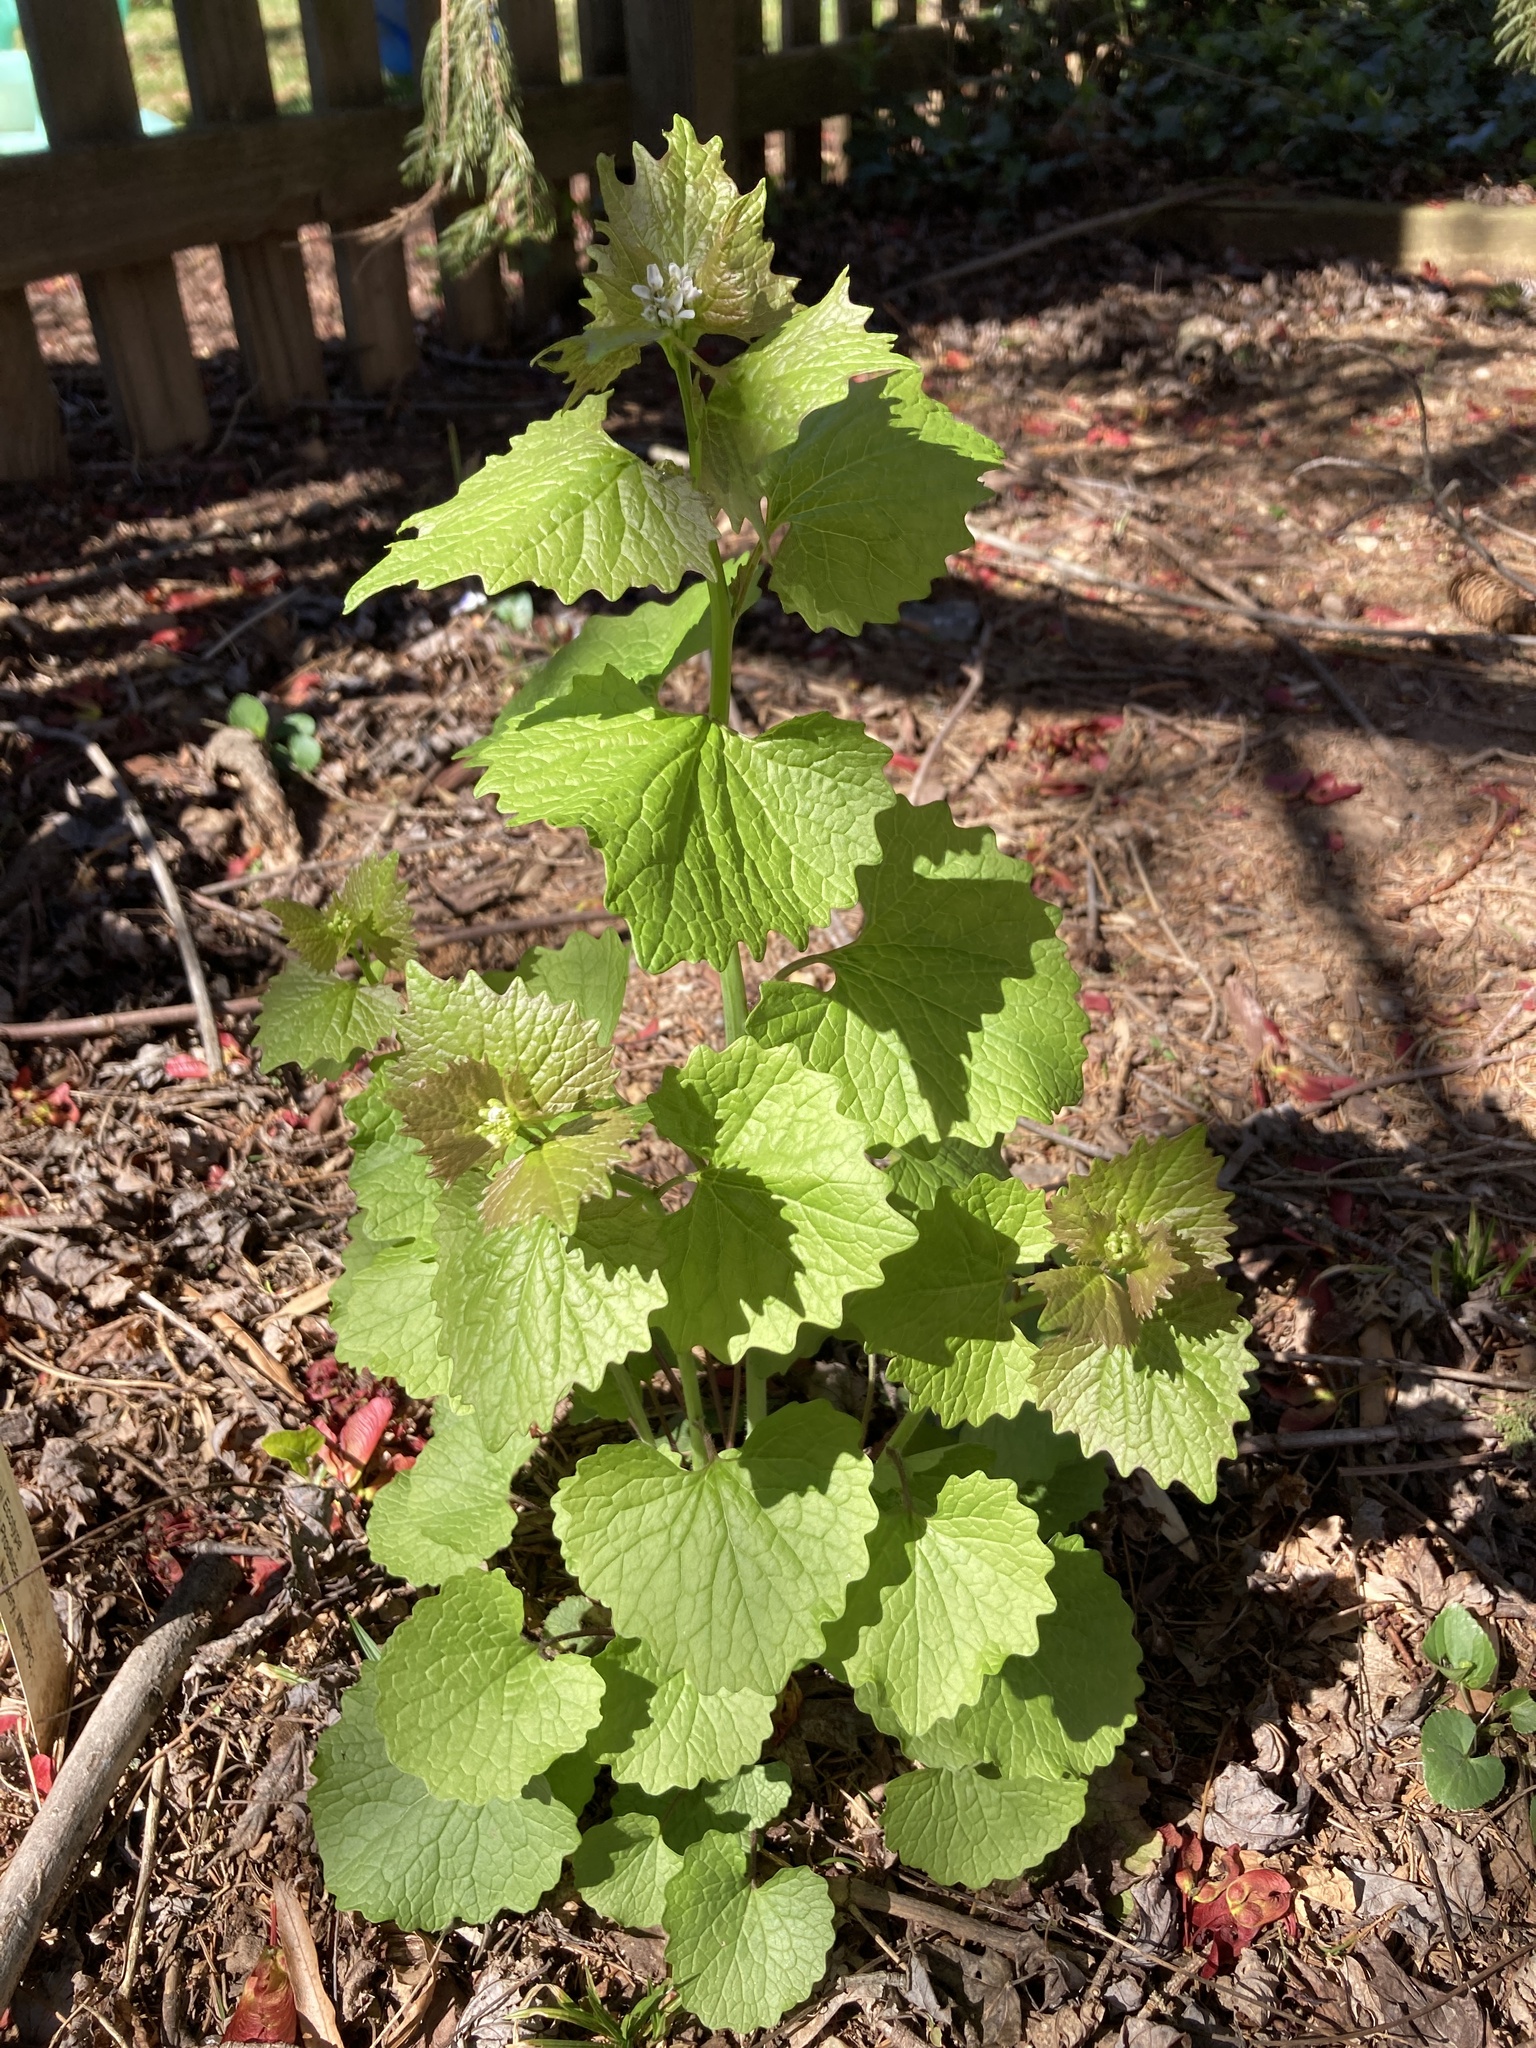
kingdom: Plantae
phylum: Tracheophyta
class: Magnoliopsida
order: Brassicales
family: Brassicaceae
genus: Alliaria
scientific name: Alliaria petiolata
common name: Garlic mustard
